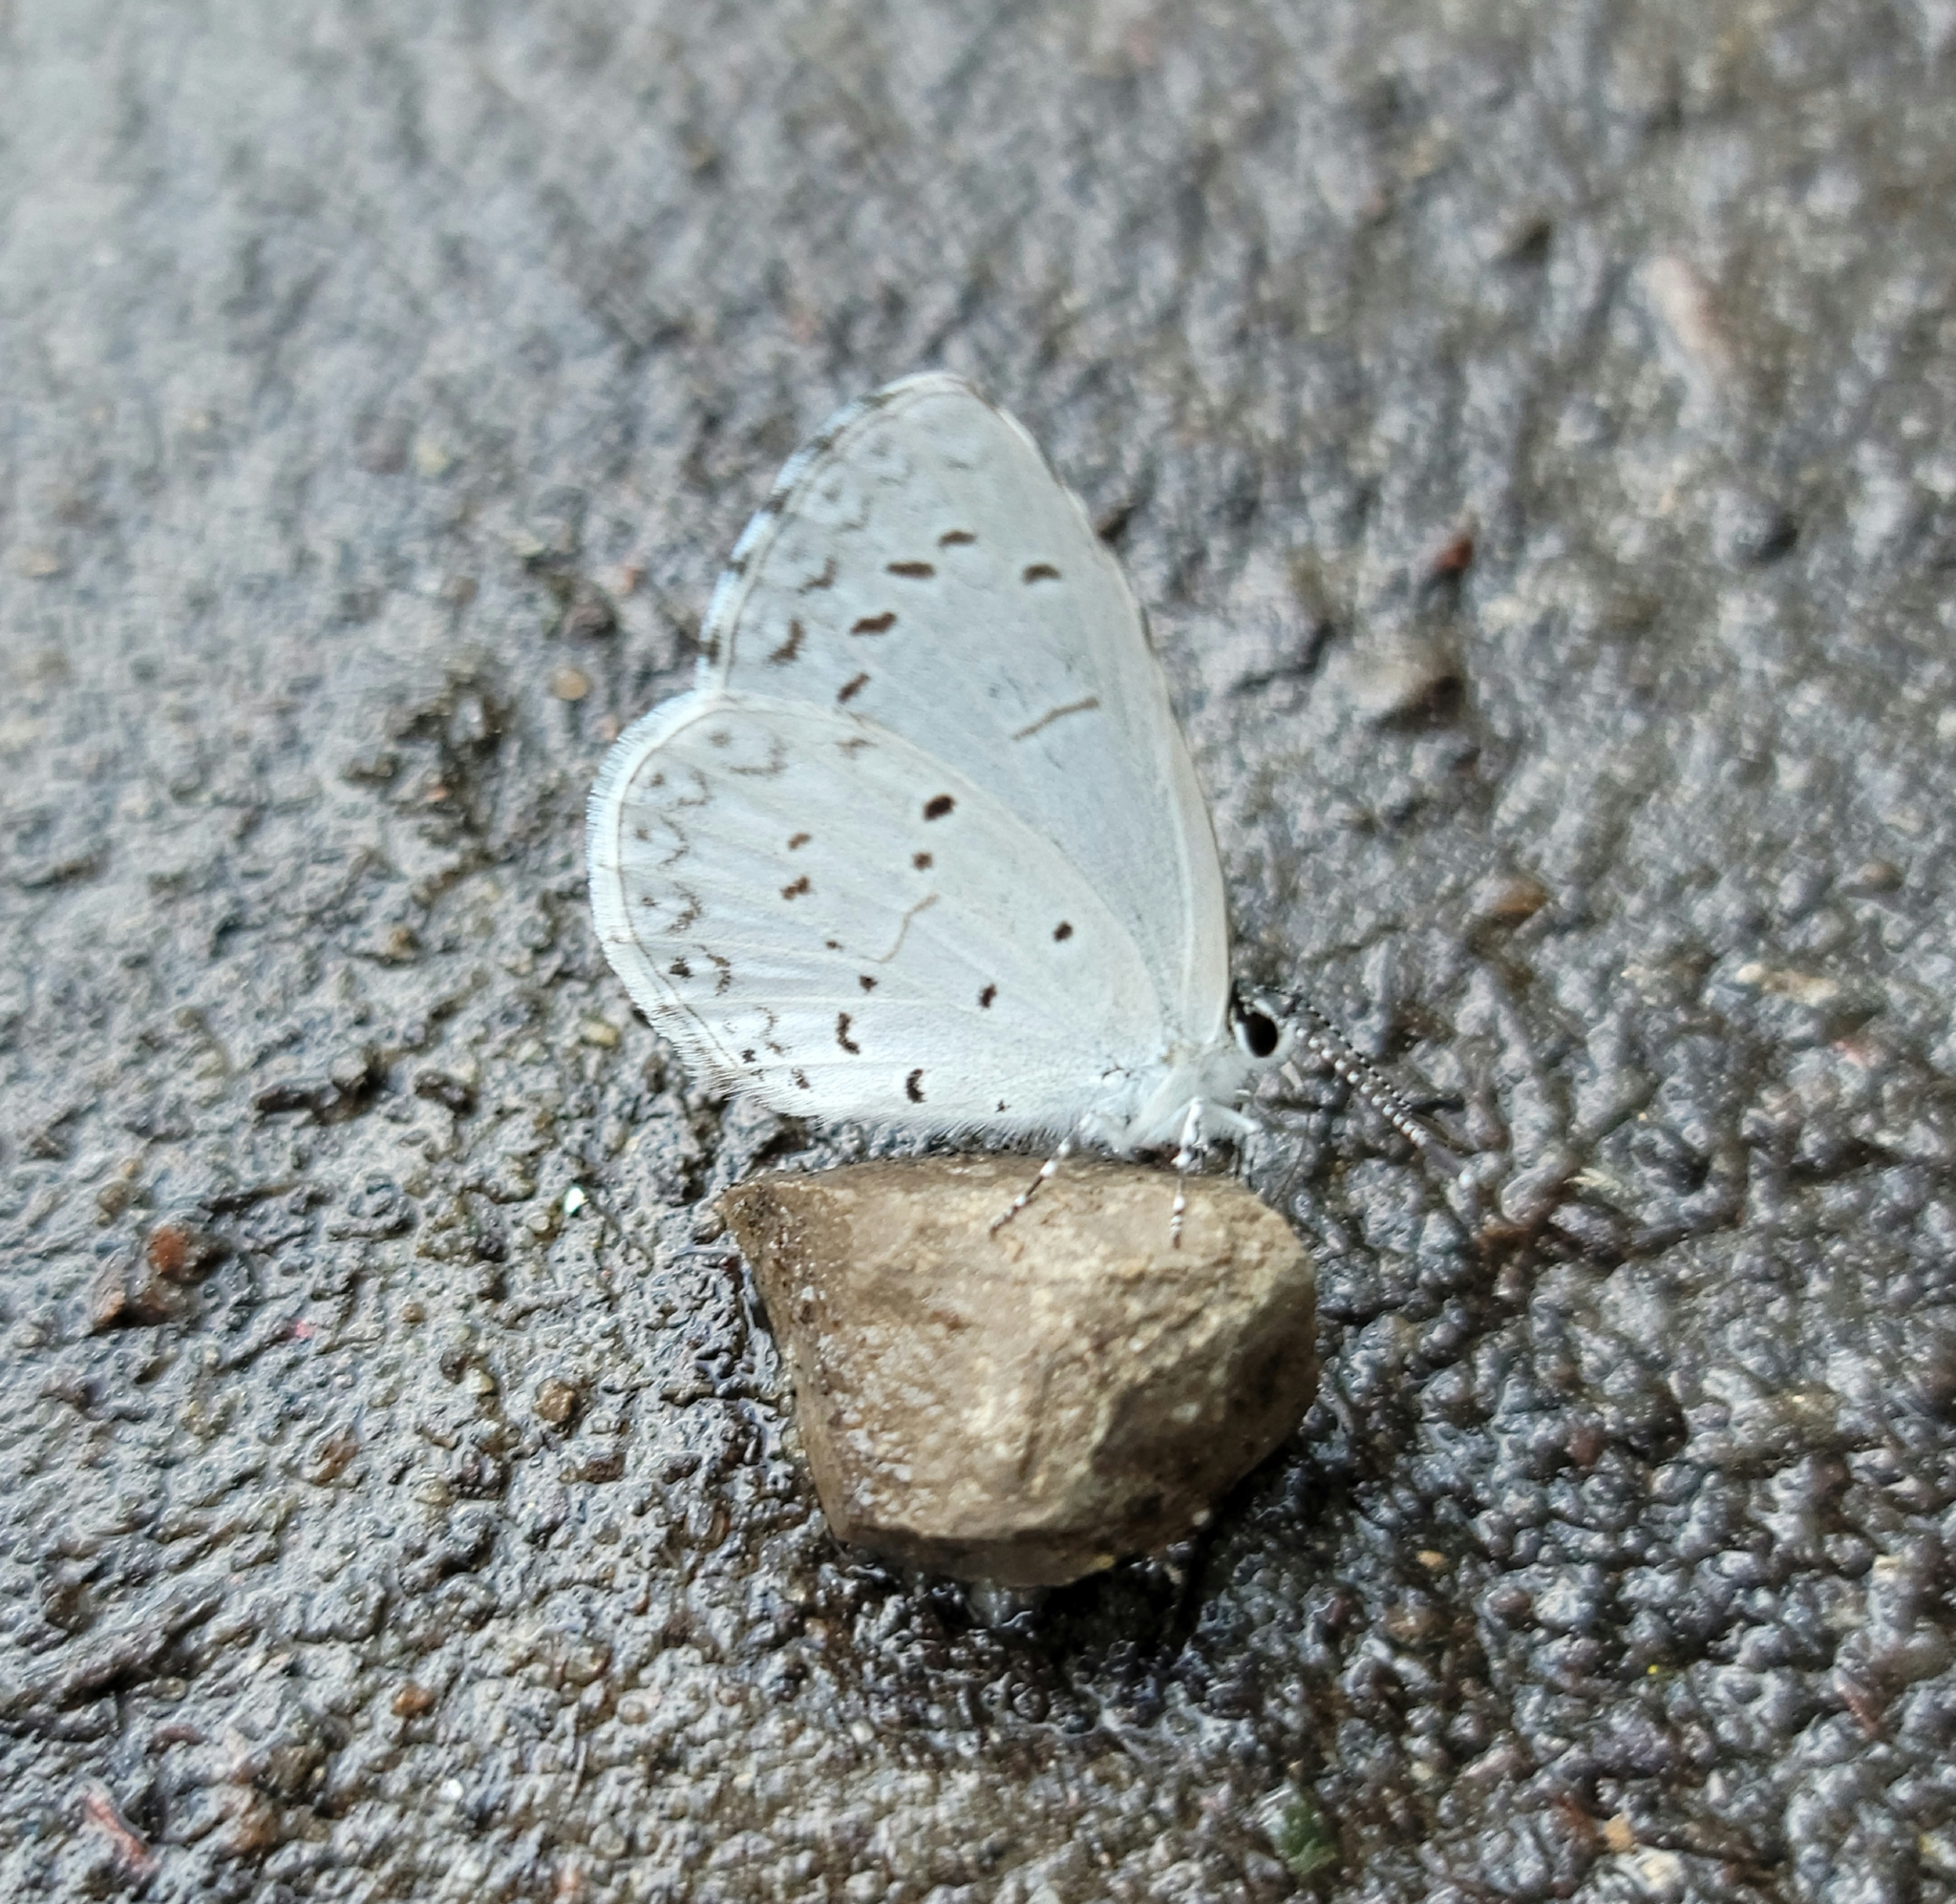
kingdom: Animalia
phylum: Arthropoda
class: Insecta
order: Lepidoptera
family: Lycaenidae
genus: Cyaniris
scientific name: Cyaniris neglecta
